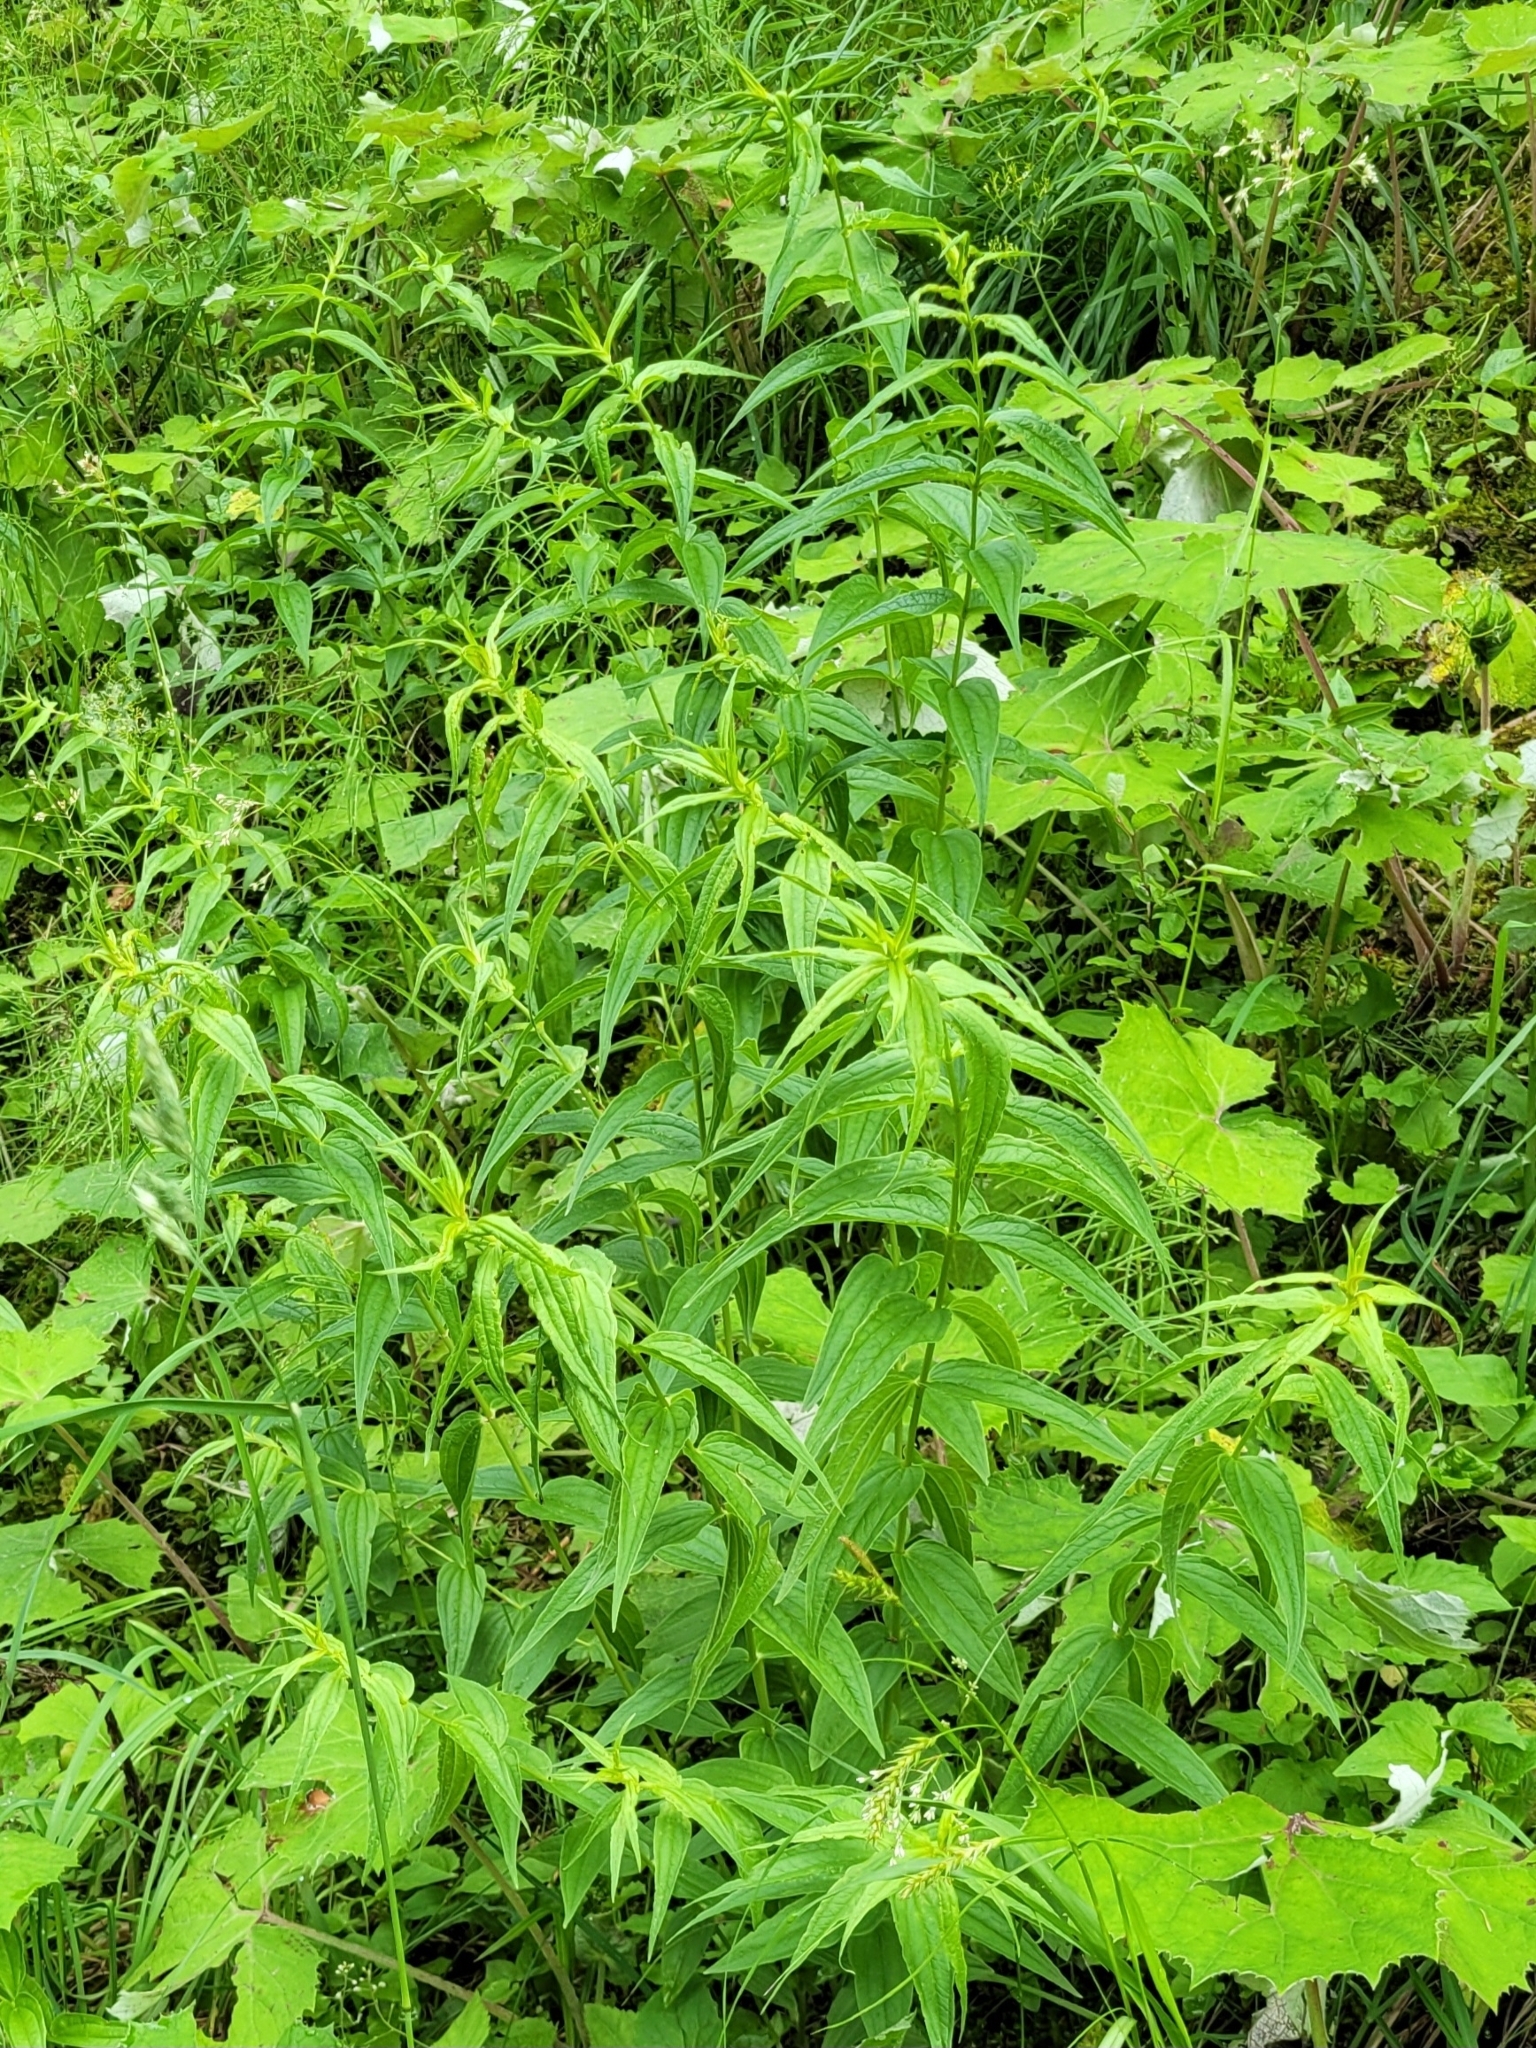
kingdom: Plantae
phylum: Tracheophyta
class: Magnoliopsida
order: Gentianales
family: Gentianaceae
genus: Gentiana
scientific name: Gentiana asclepiadea
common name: Willow gentian
